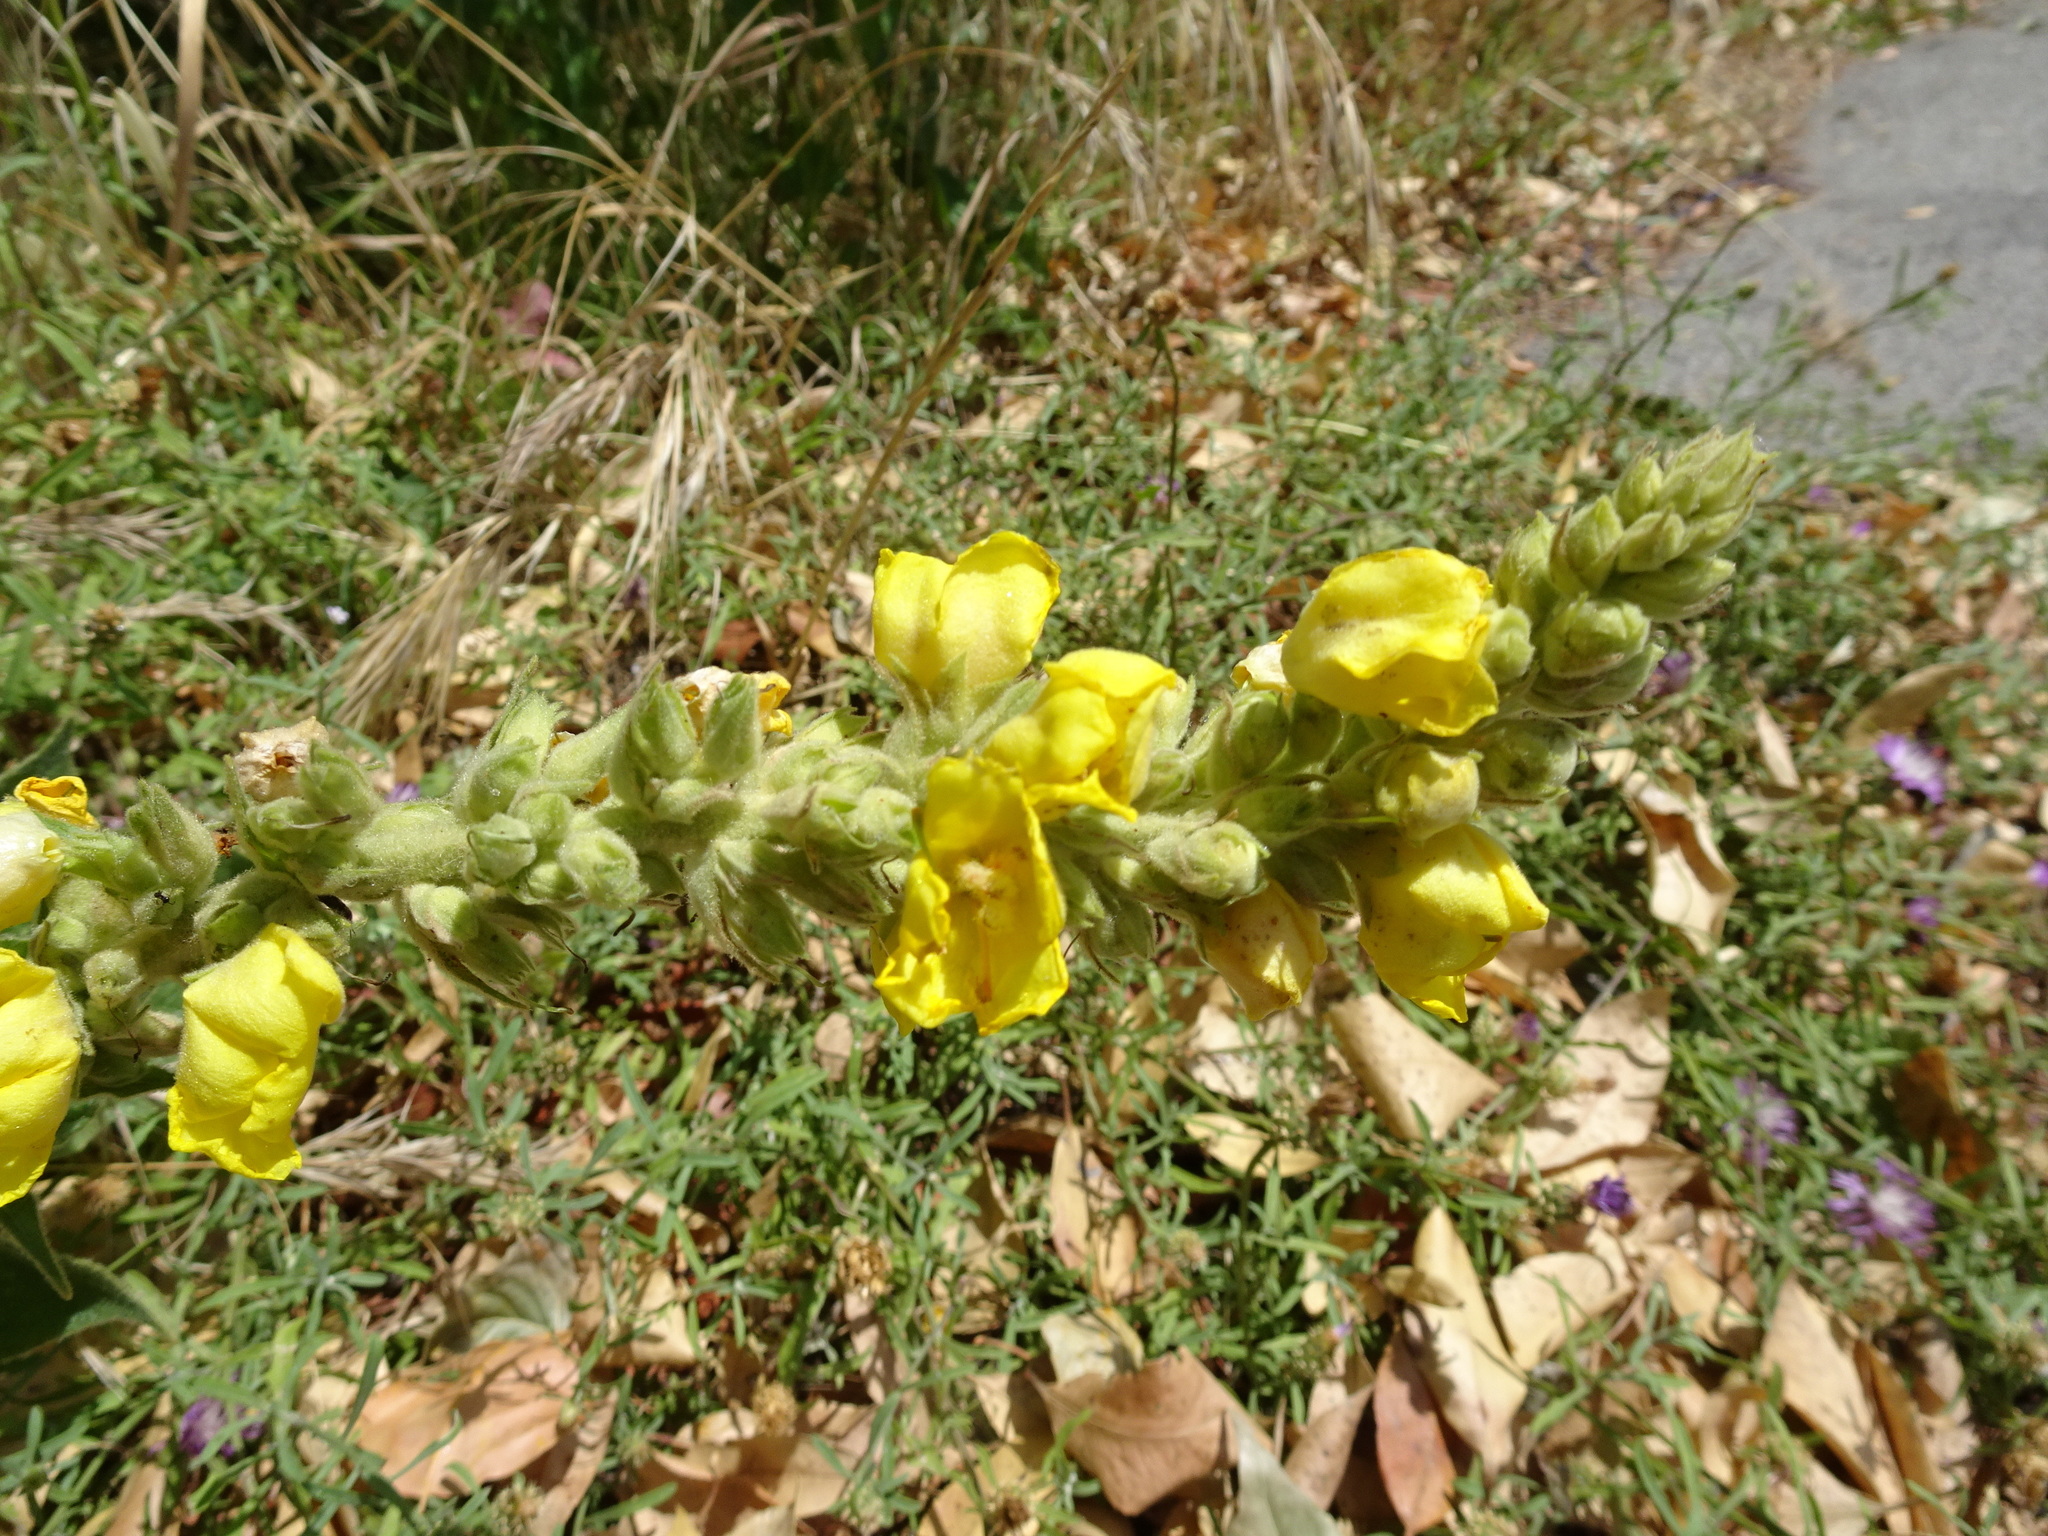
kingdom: Plantae
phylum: Tracheophyta
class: Magnoliopsida
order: Lamiales
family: Scrophulariaceae
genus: Verbascum
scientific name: Verbascum thapsus
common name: Common mullein
